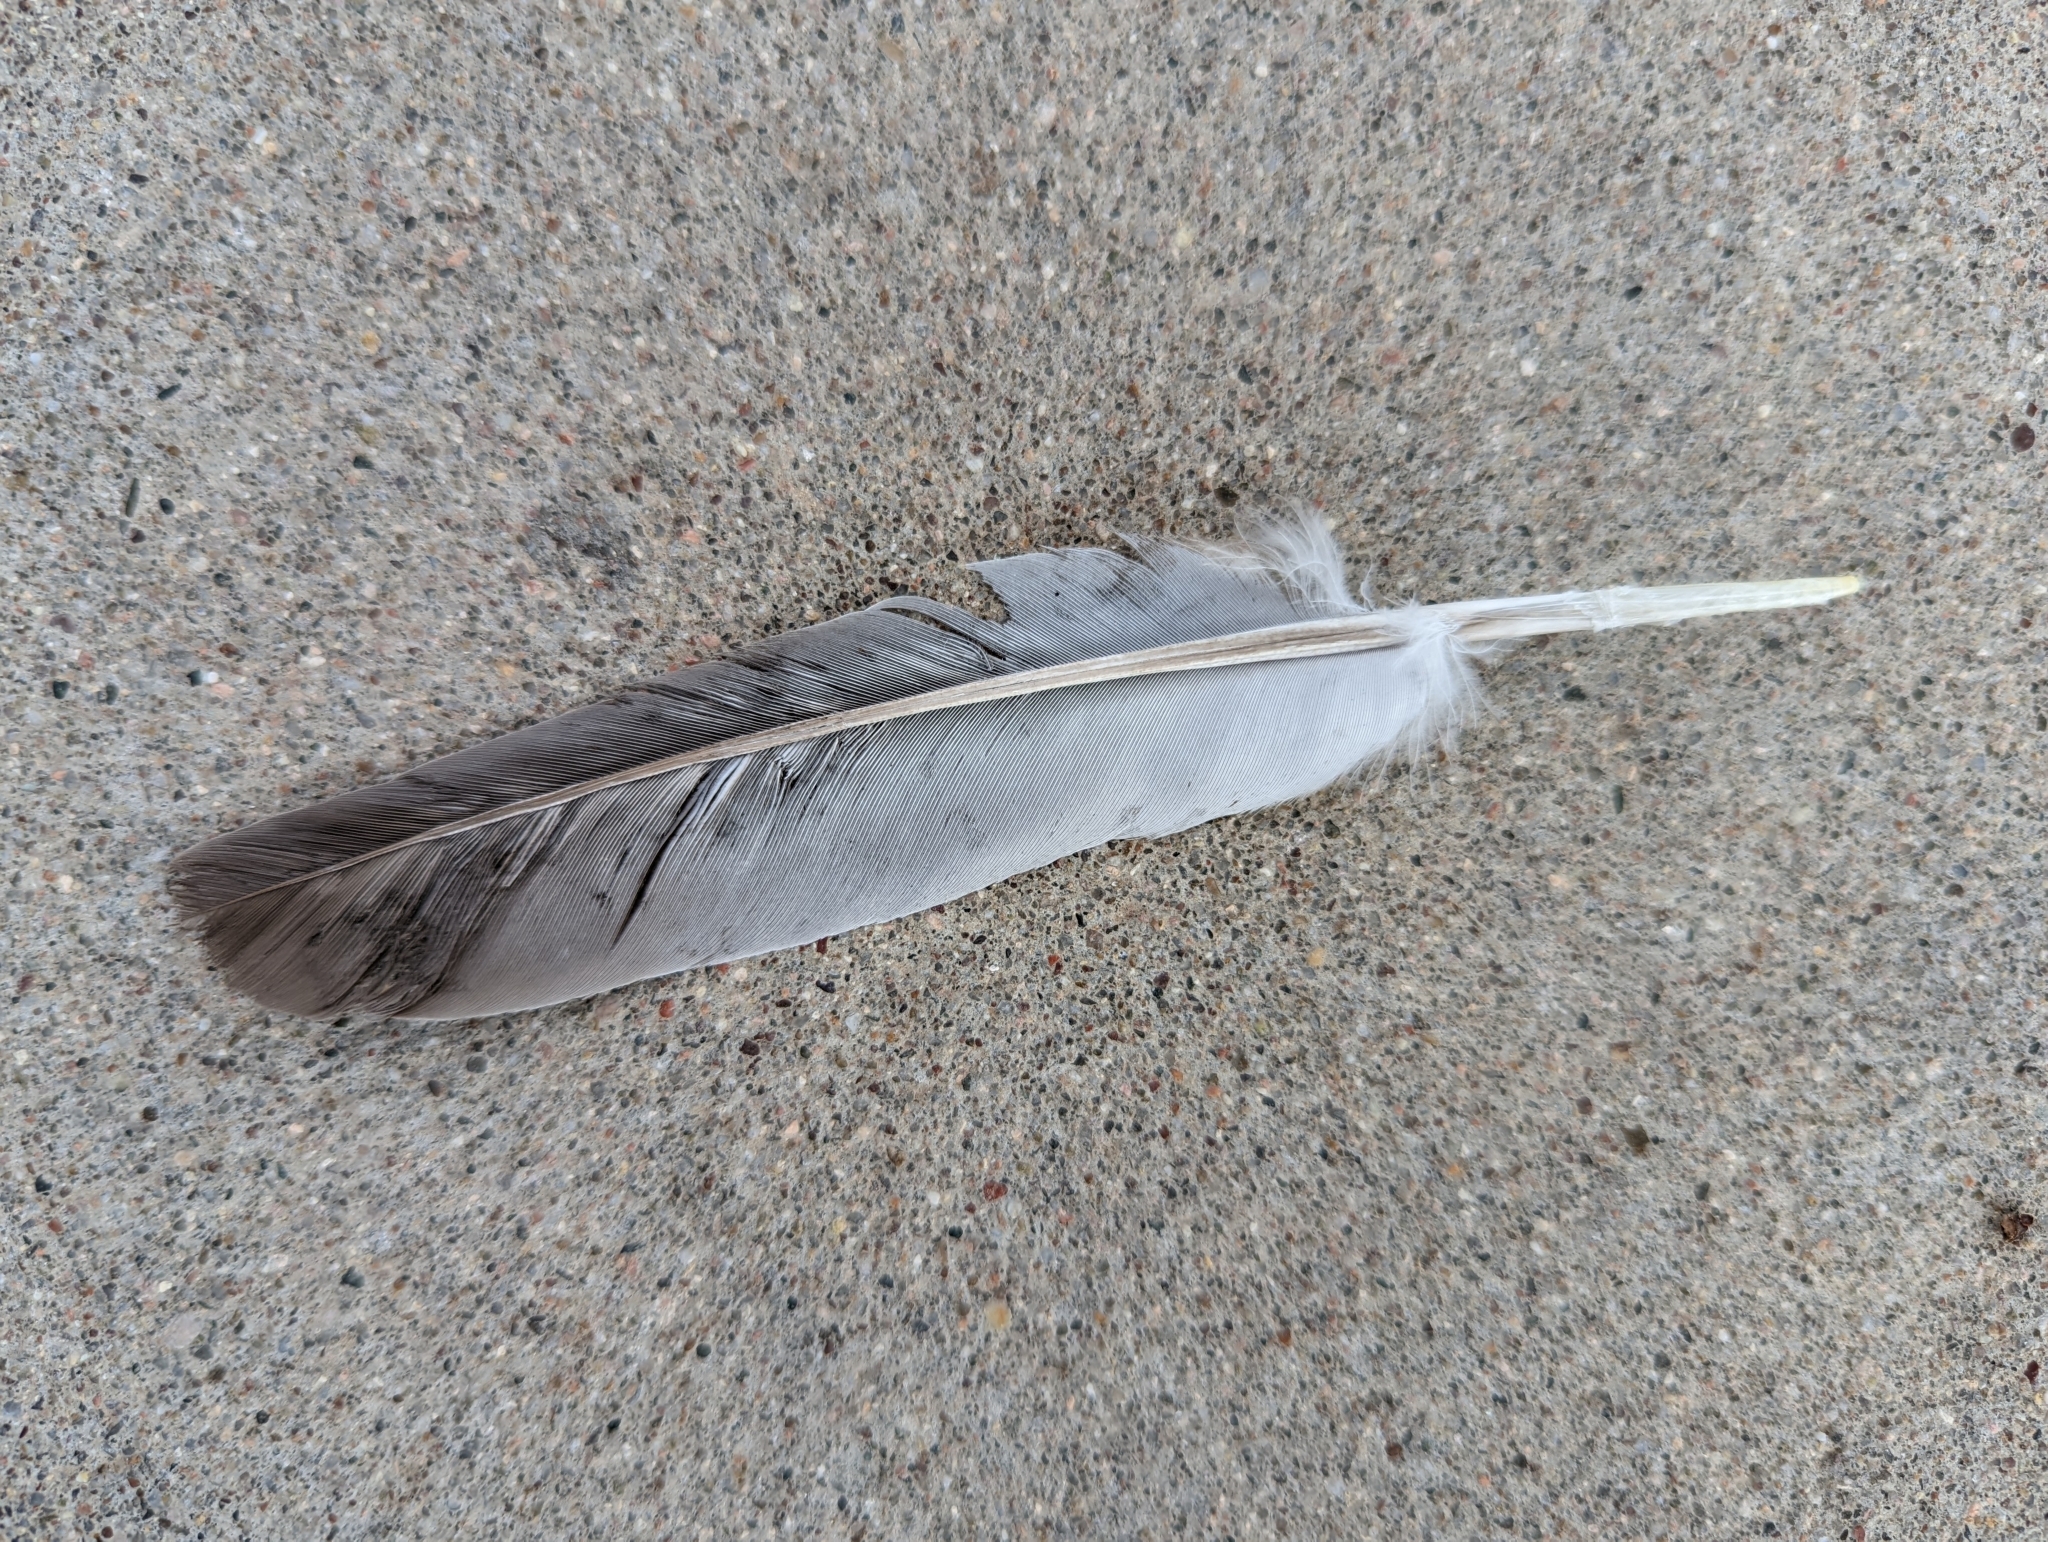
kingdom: Animalia
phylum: Chordata
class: Aves
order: Columbiformes
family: Columbidae
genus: Columba
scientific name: Columba livia
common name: Rock pigeon
